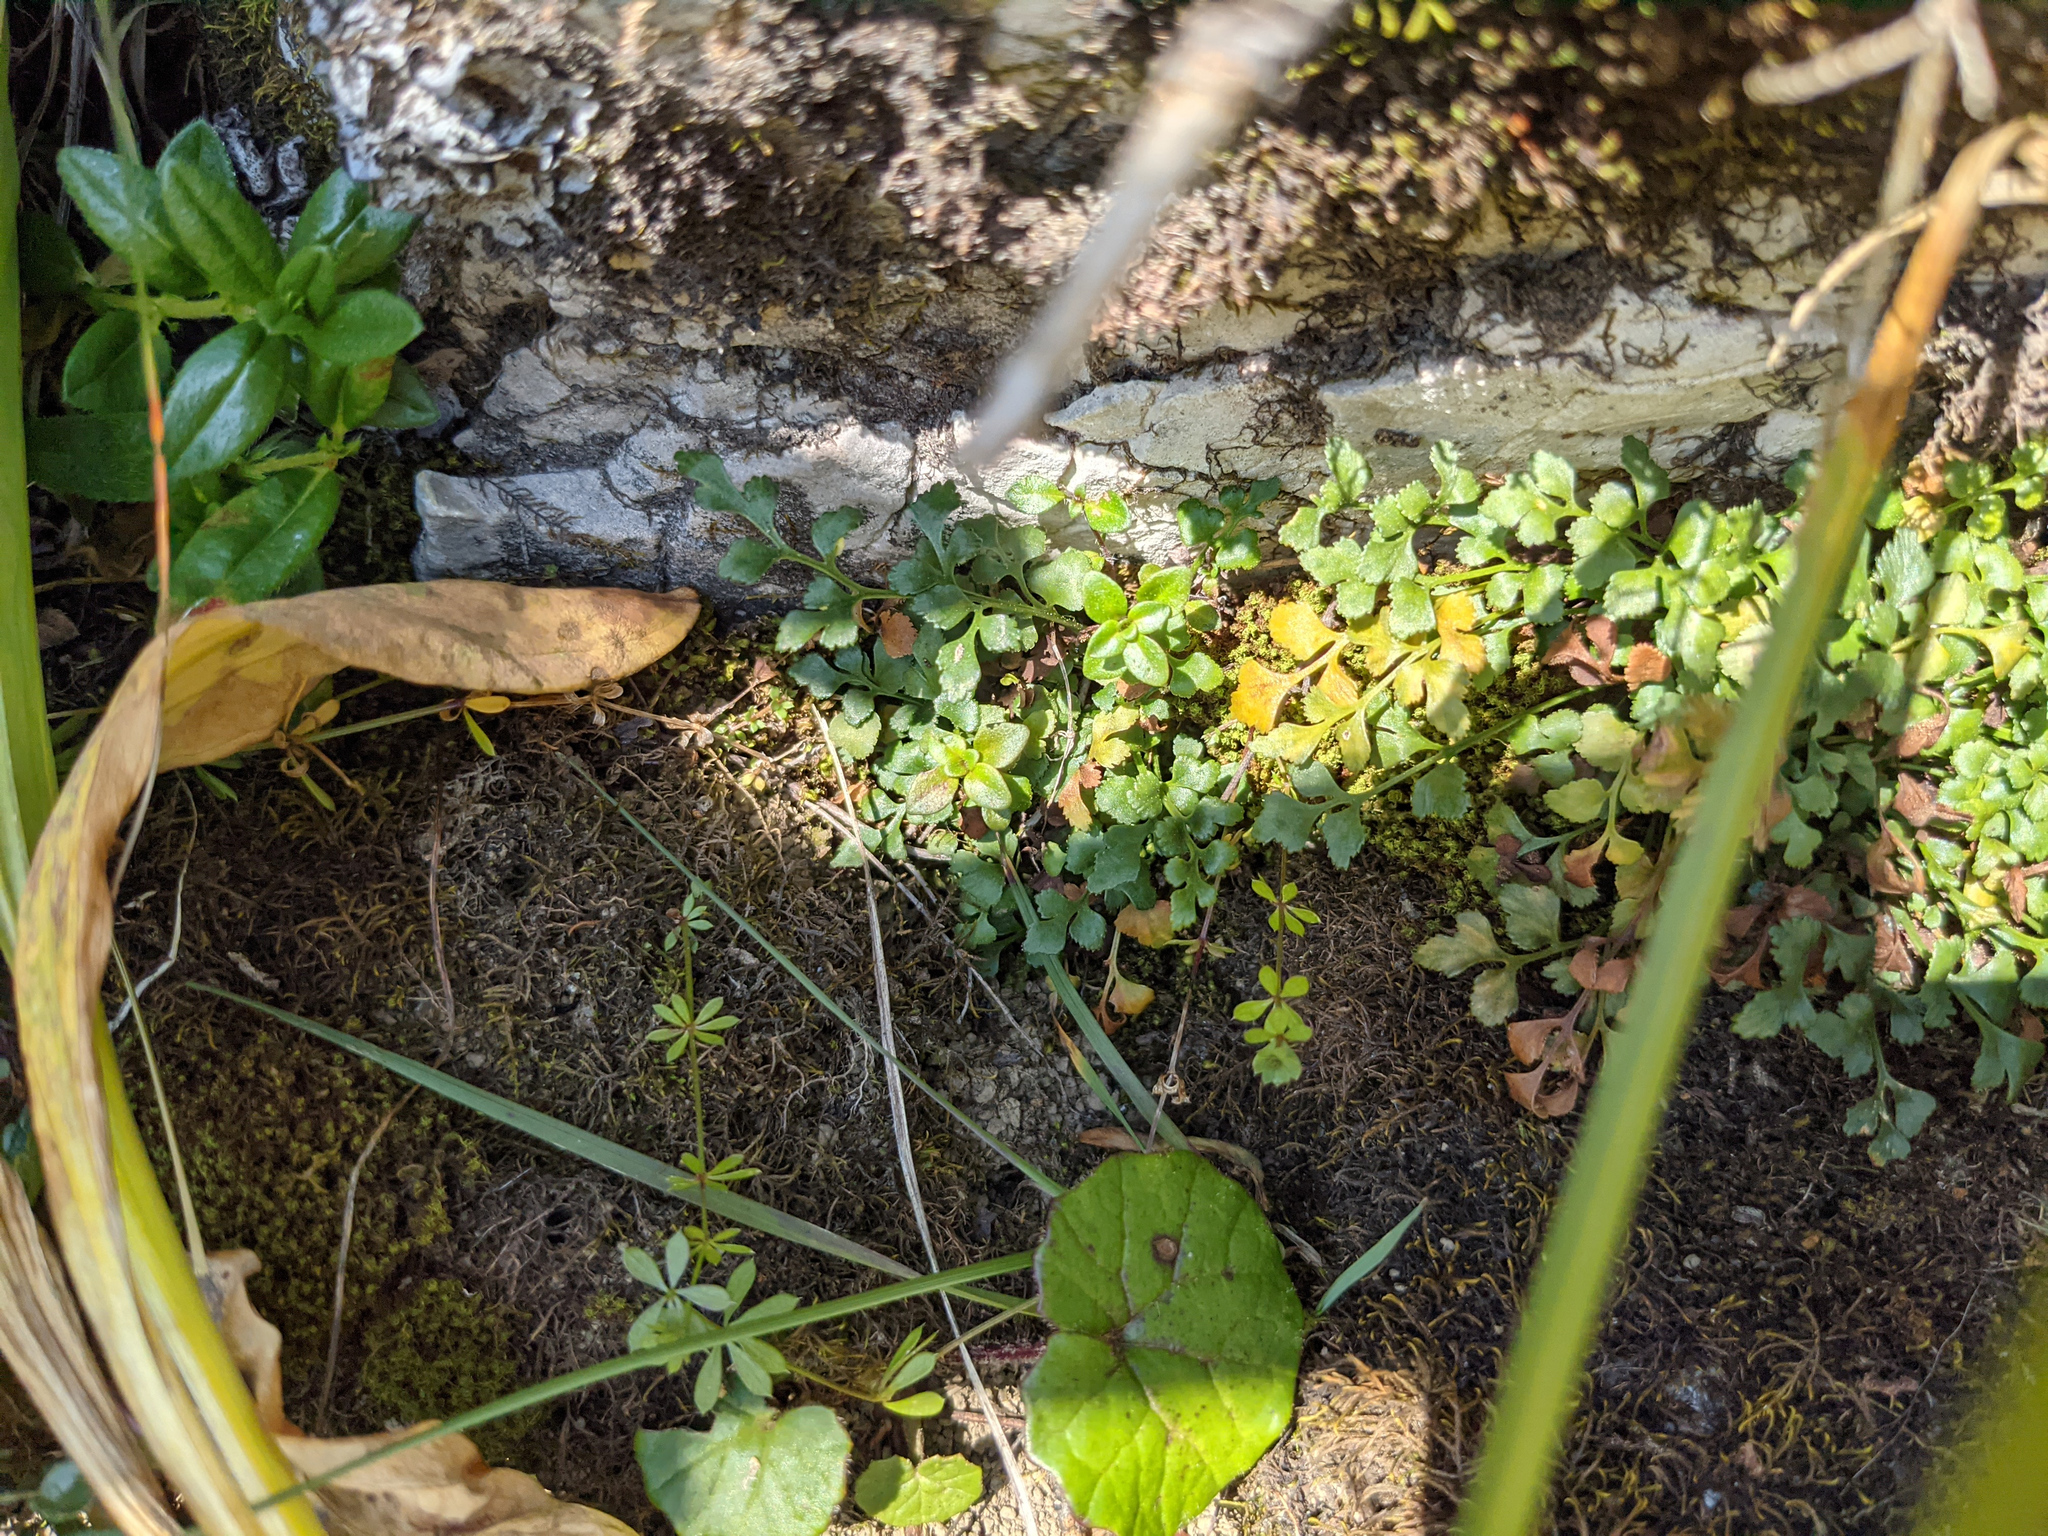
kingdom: Plantae
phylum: Tracheophyta
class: Polypodiopsida
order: Polypodiales
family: Aspleniaceae
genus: Asplenium
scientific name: Asplenium ruta-muraria
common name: Wall-rue
